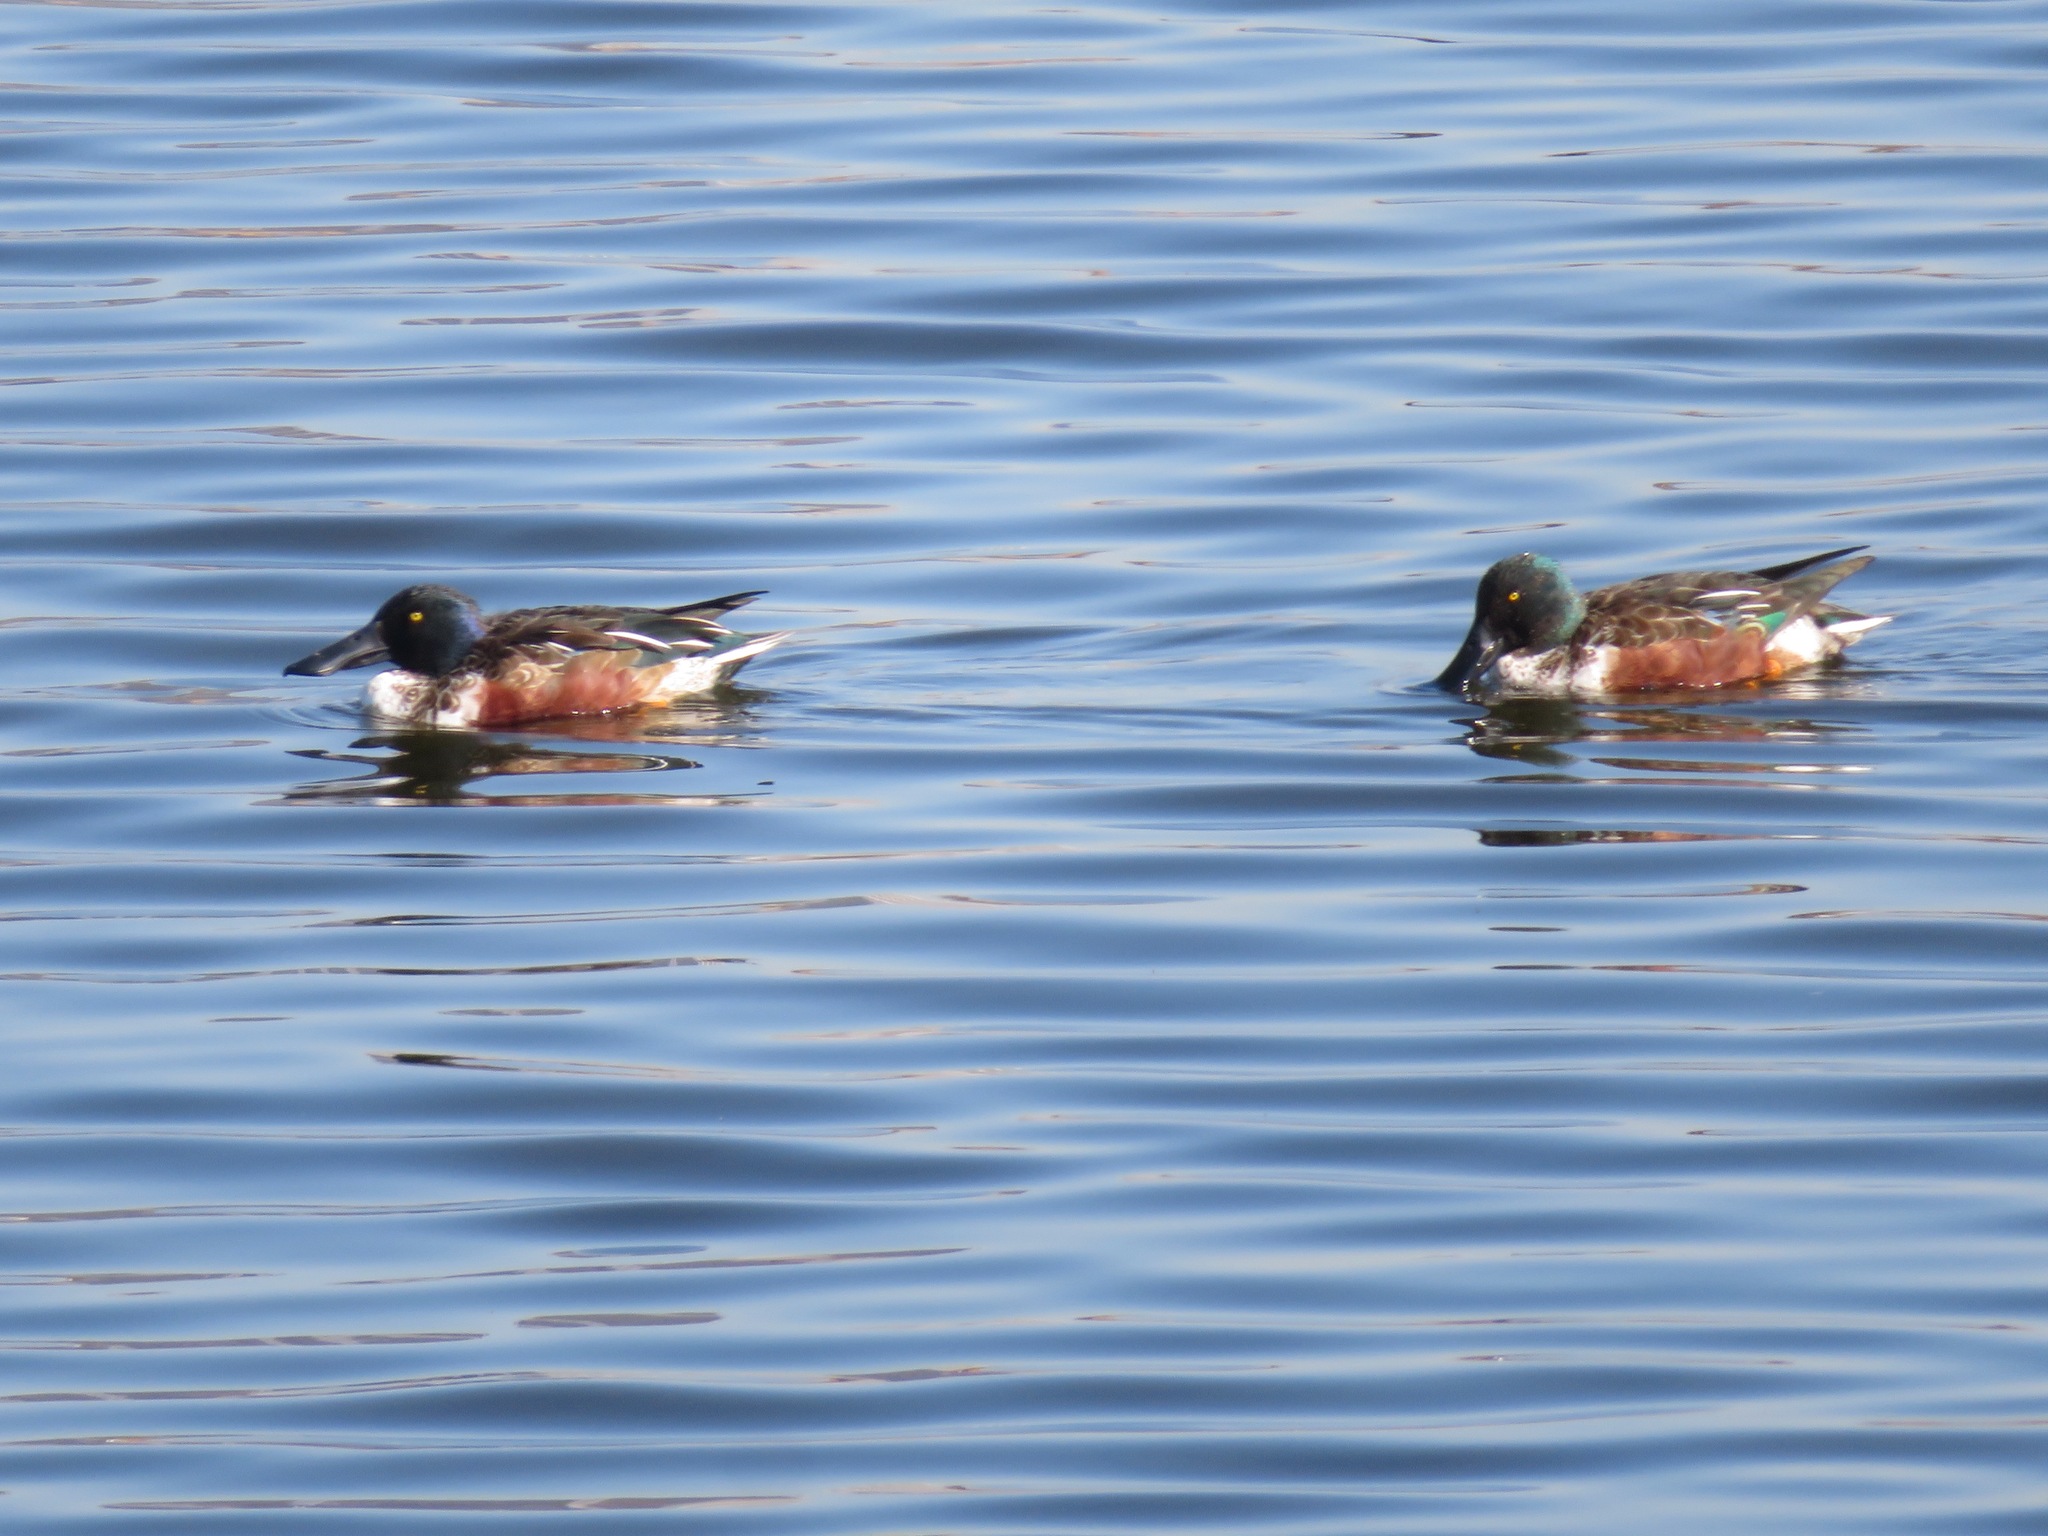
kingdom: Animalia
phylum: Chordata
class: Aves
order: Anseriformes
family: Anatidae
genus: Spatula
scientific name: Spatula clypeata
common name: Northern shoveler
